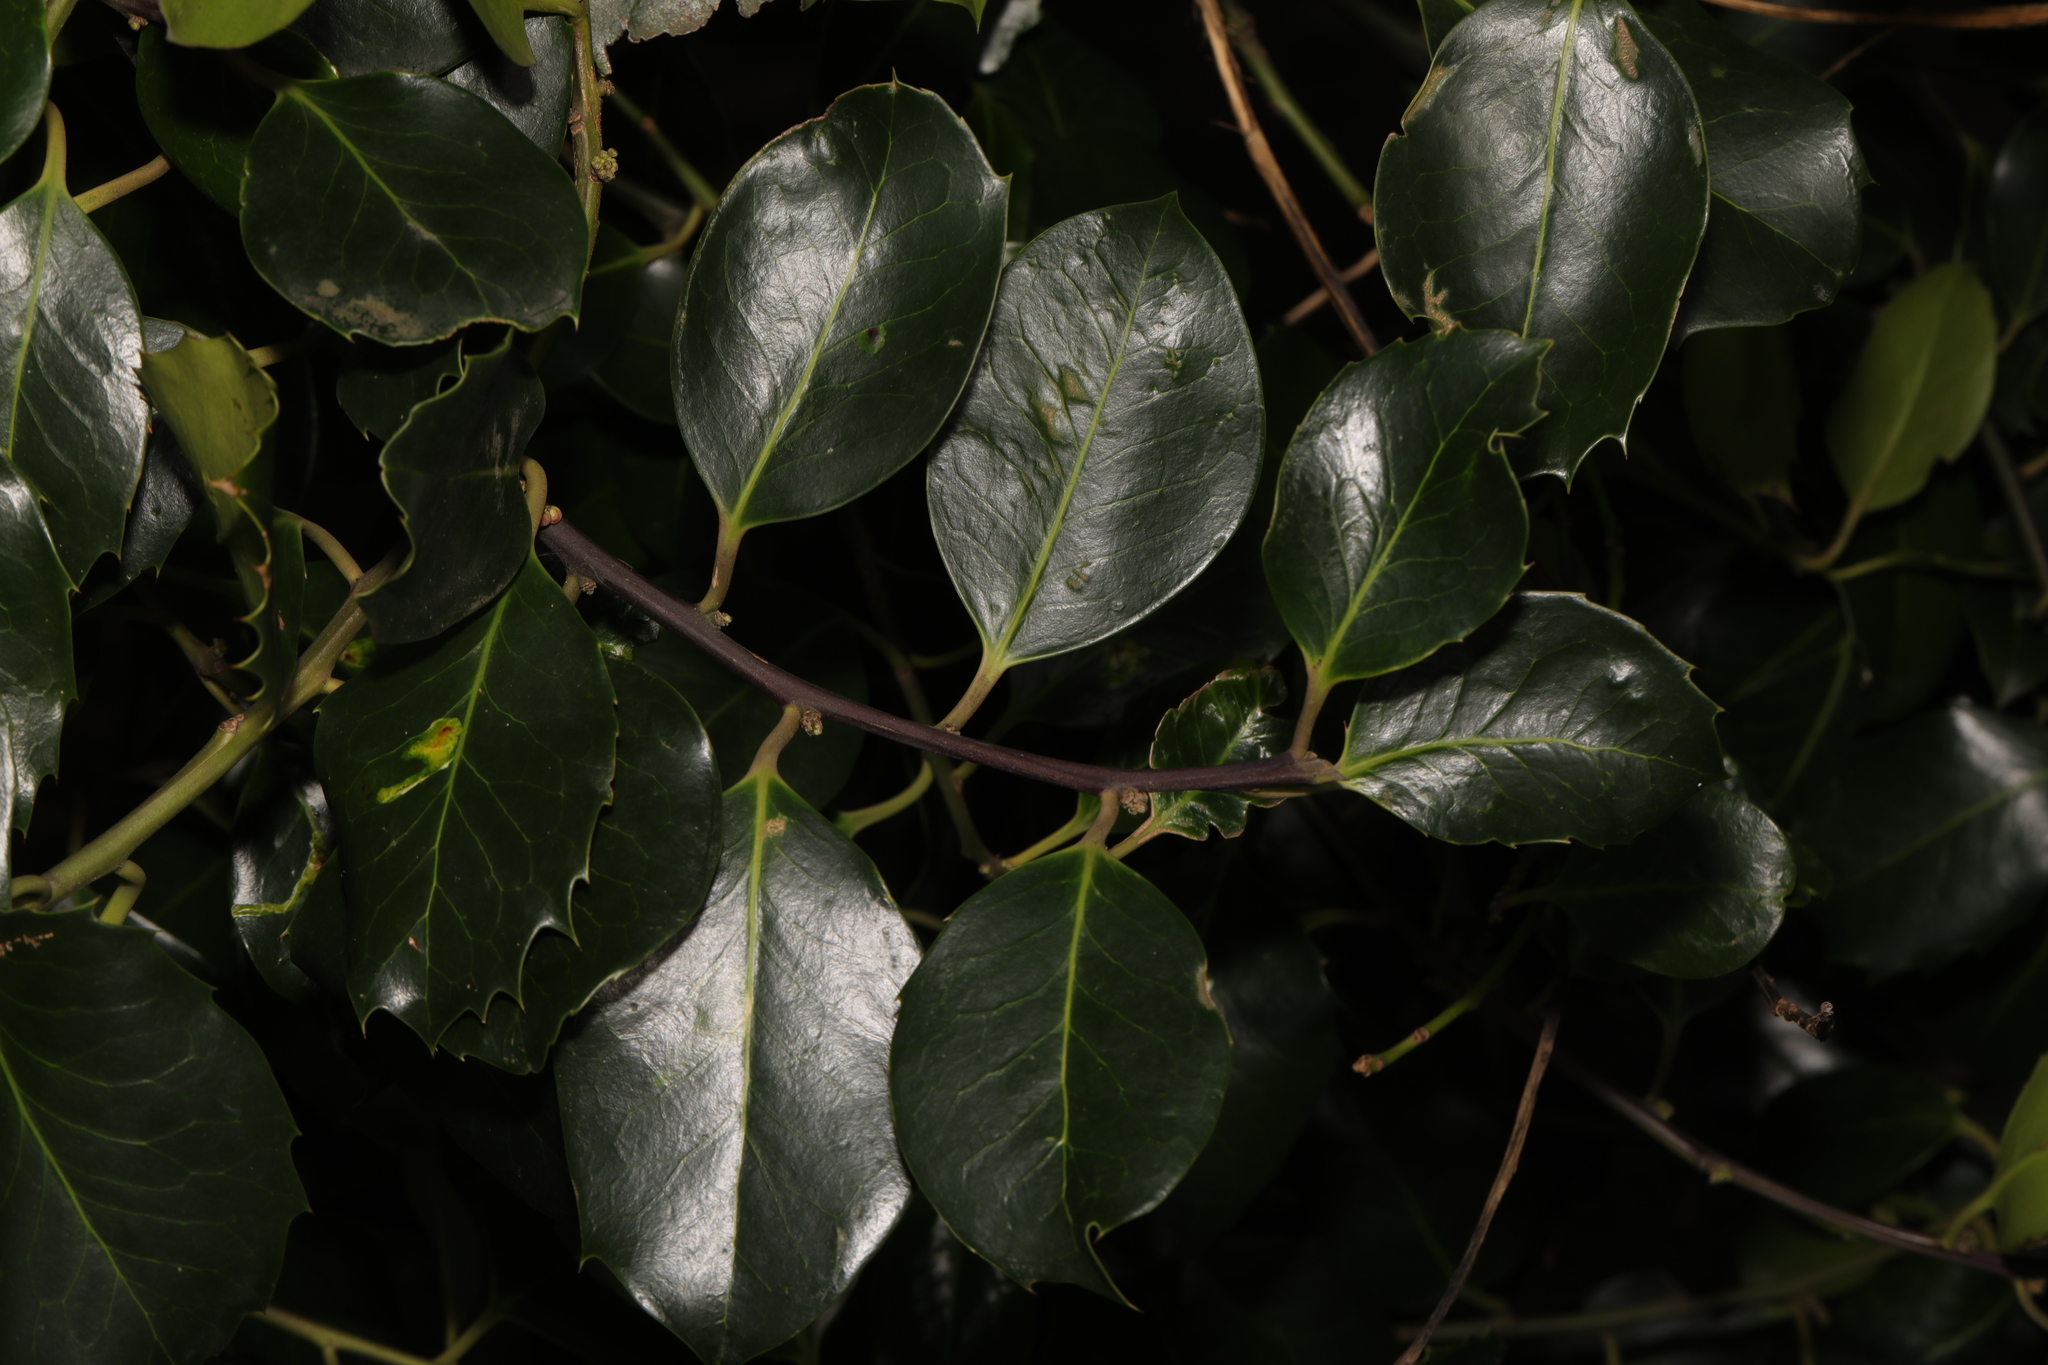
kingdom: Plantae
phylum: Tracheophyta
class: Magnoliopsida
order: Aquifoliales
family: Aquifoliaceae
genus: Ilex
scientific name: Ilex altaclerensis
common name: Highclere holly
